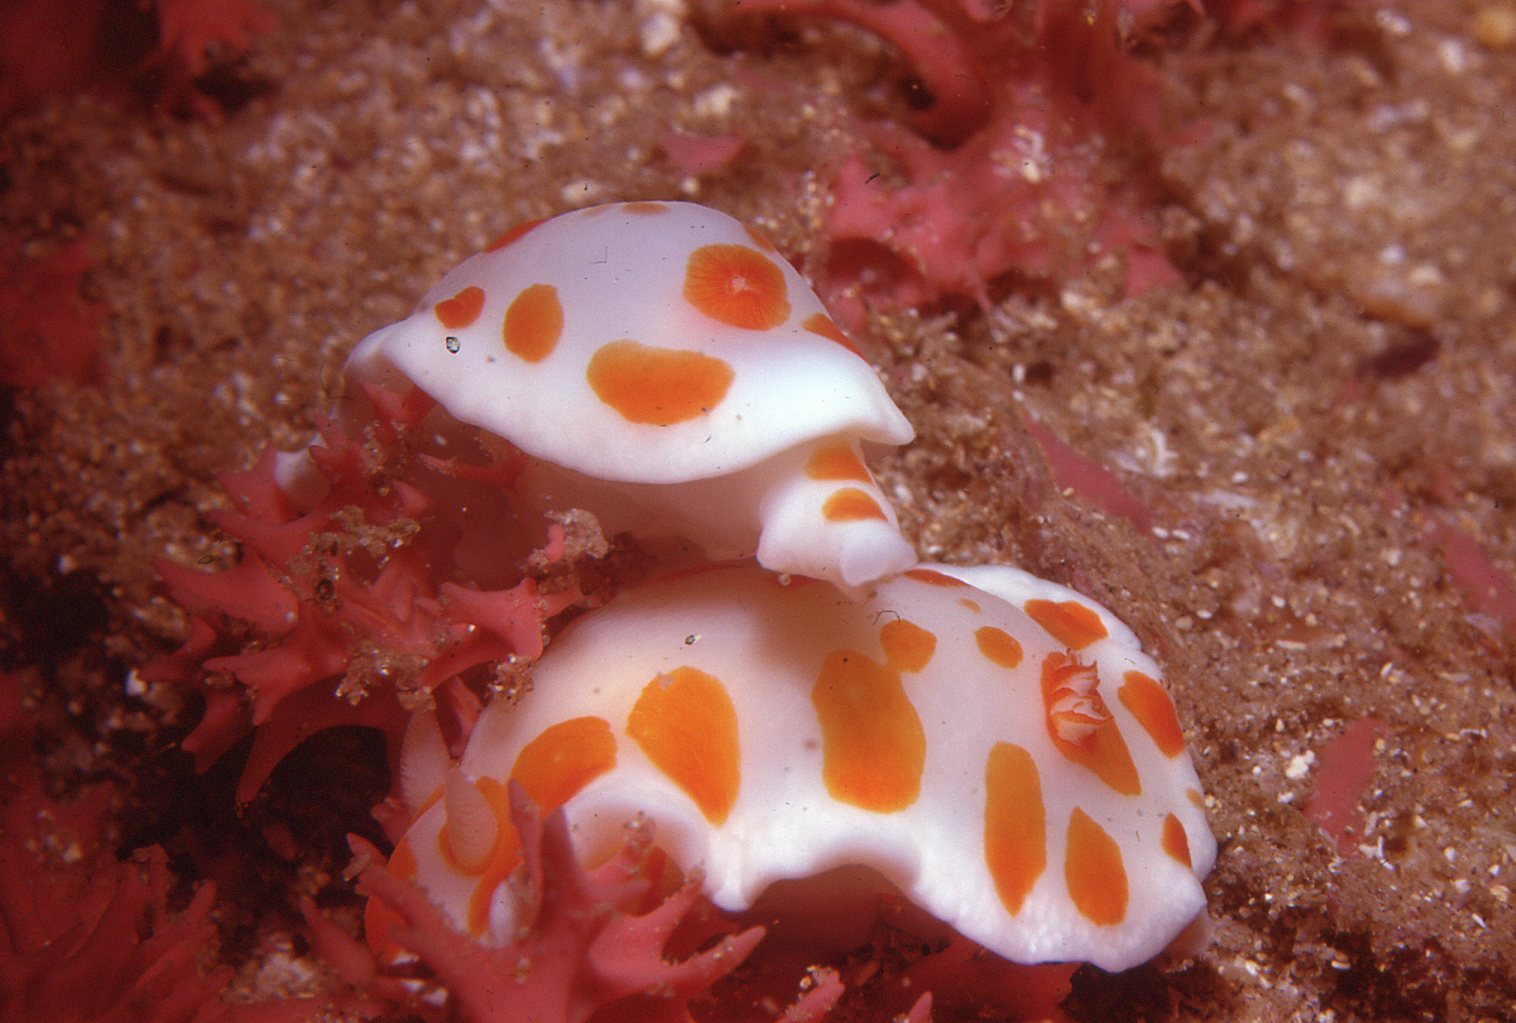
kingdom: Animalia
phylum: Mollusca
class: Gastropoda
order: Nudibranchia
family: Chromodorididae
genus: Goniobranchus
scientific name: Goniobranchus tasmaniensis
